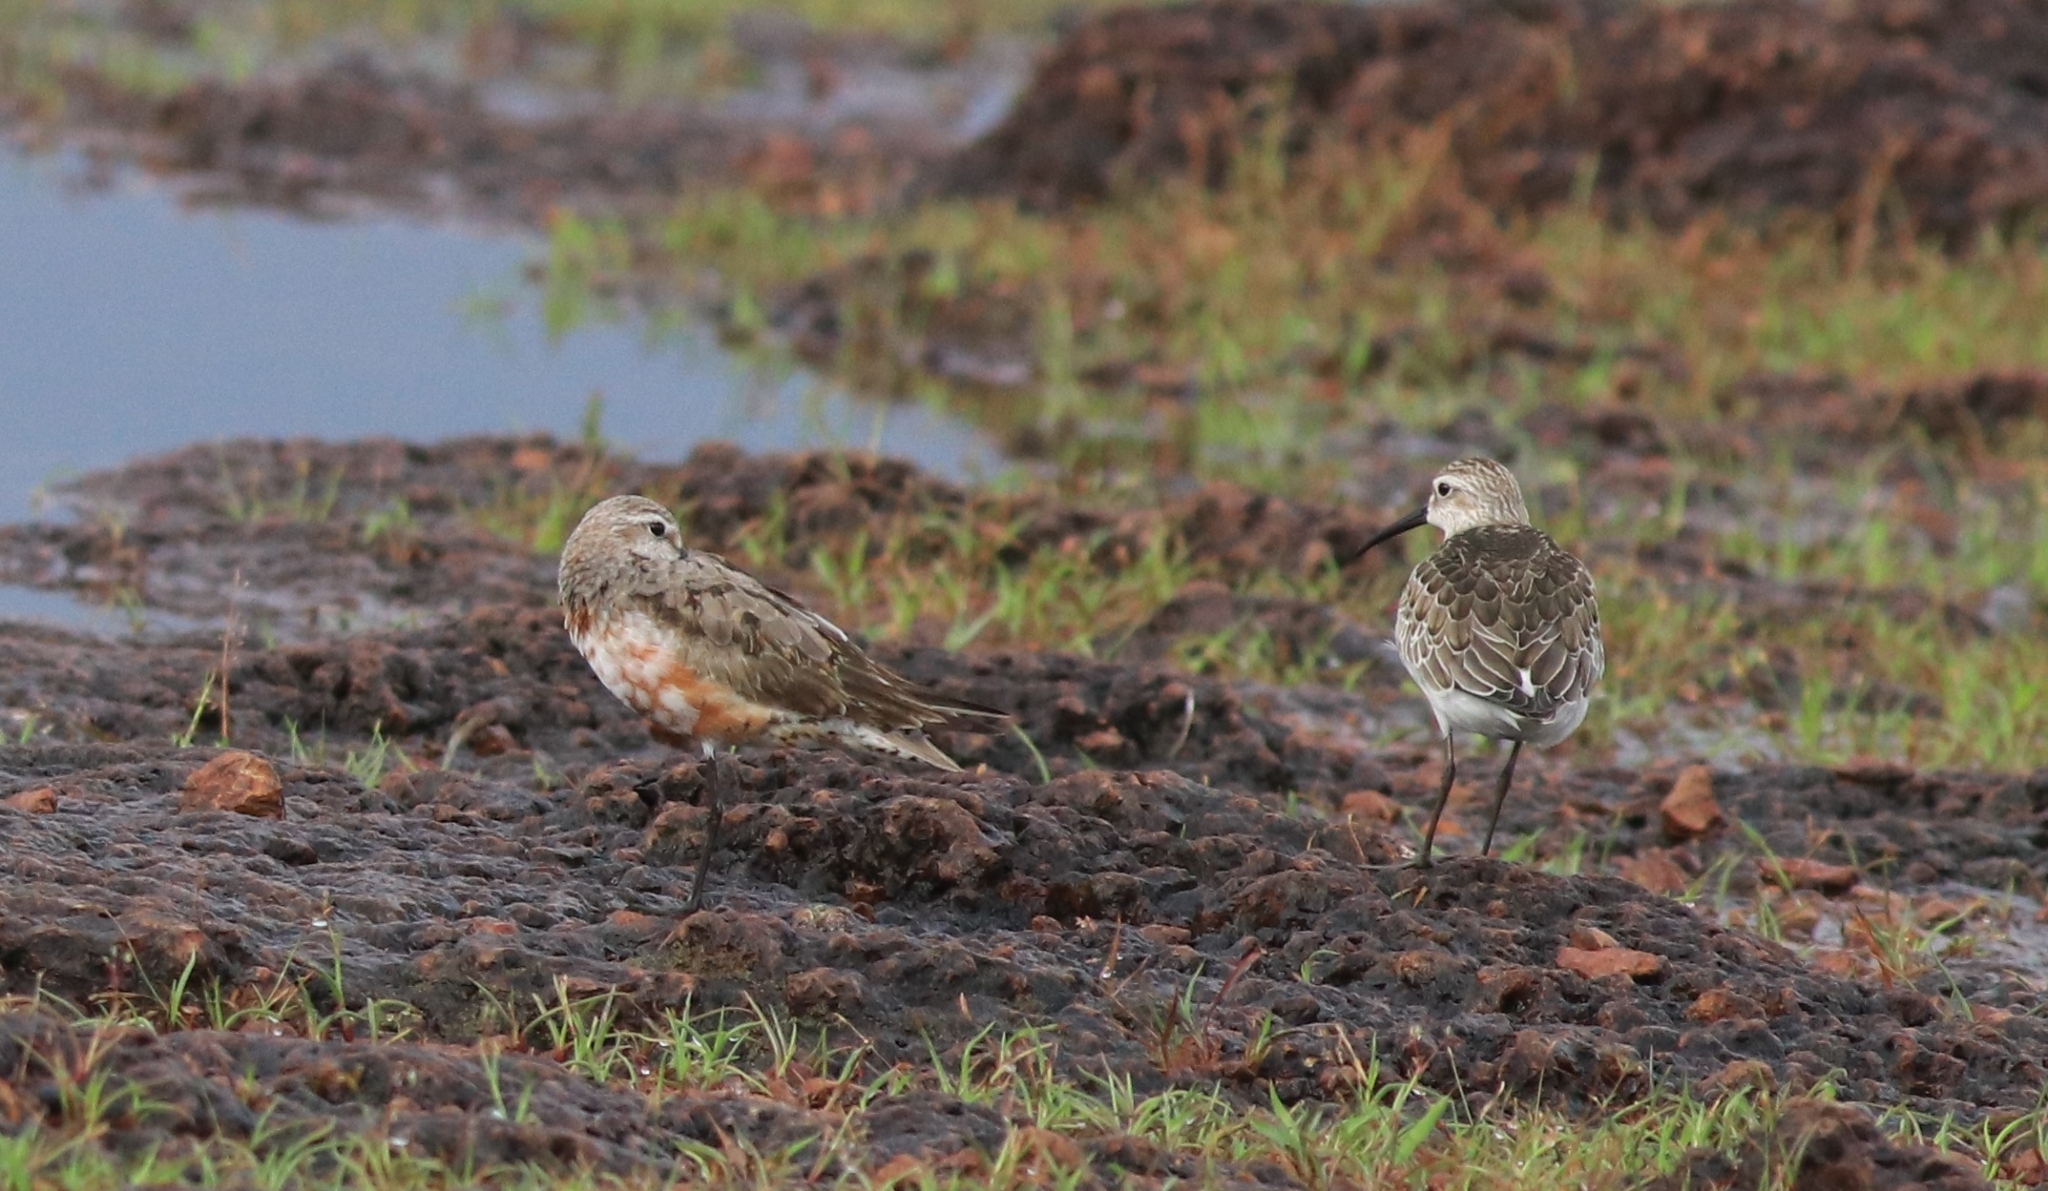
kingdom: Animalia
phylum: Chordata
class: Aves
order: Charadriiformes
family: Scolopacidae
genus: Calidris
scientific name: Calidris ferruginea
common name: Curlew sandpiper
